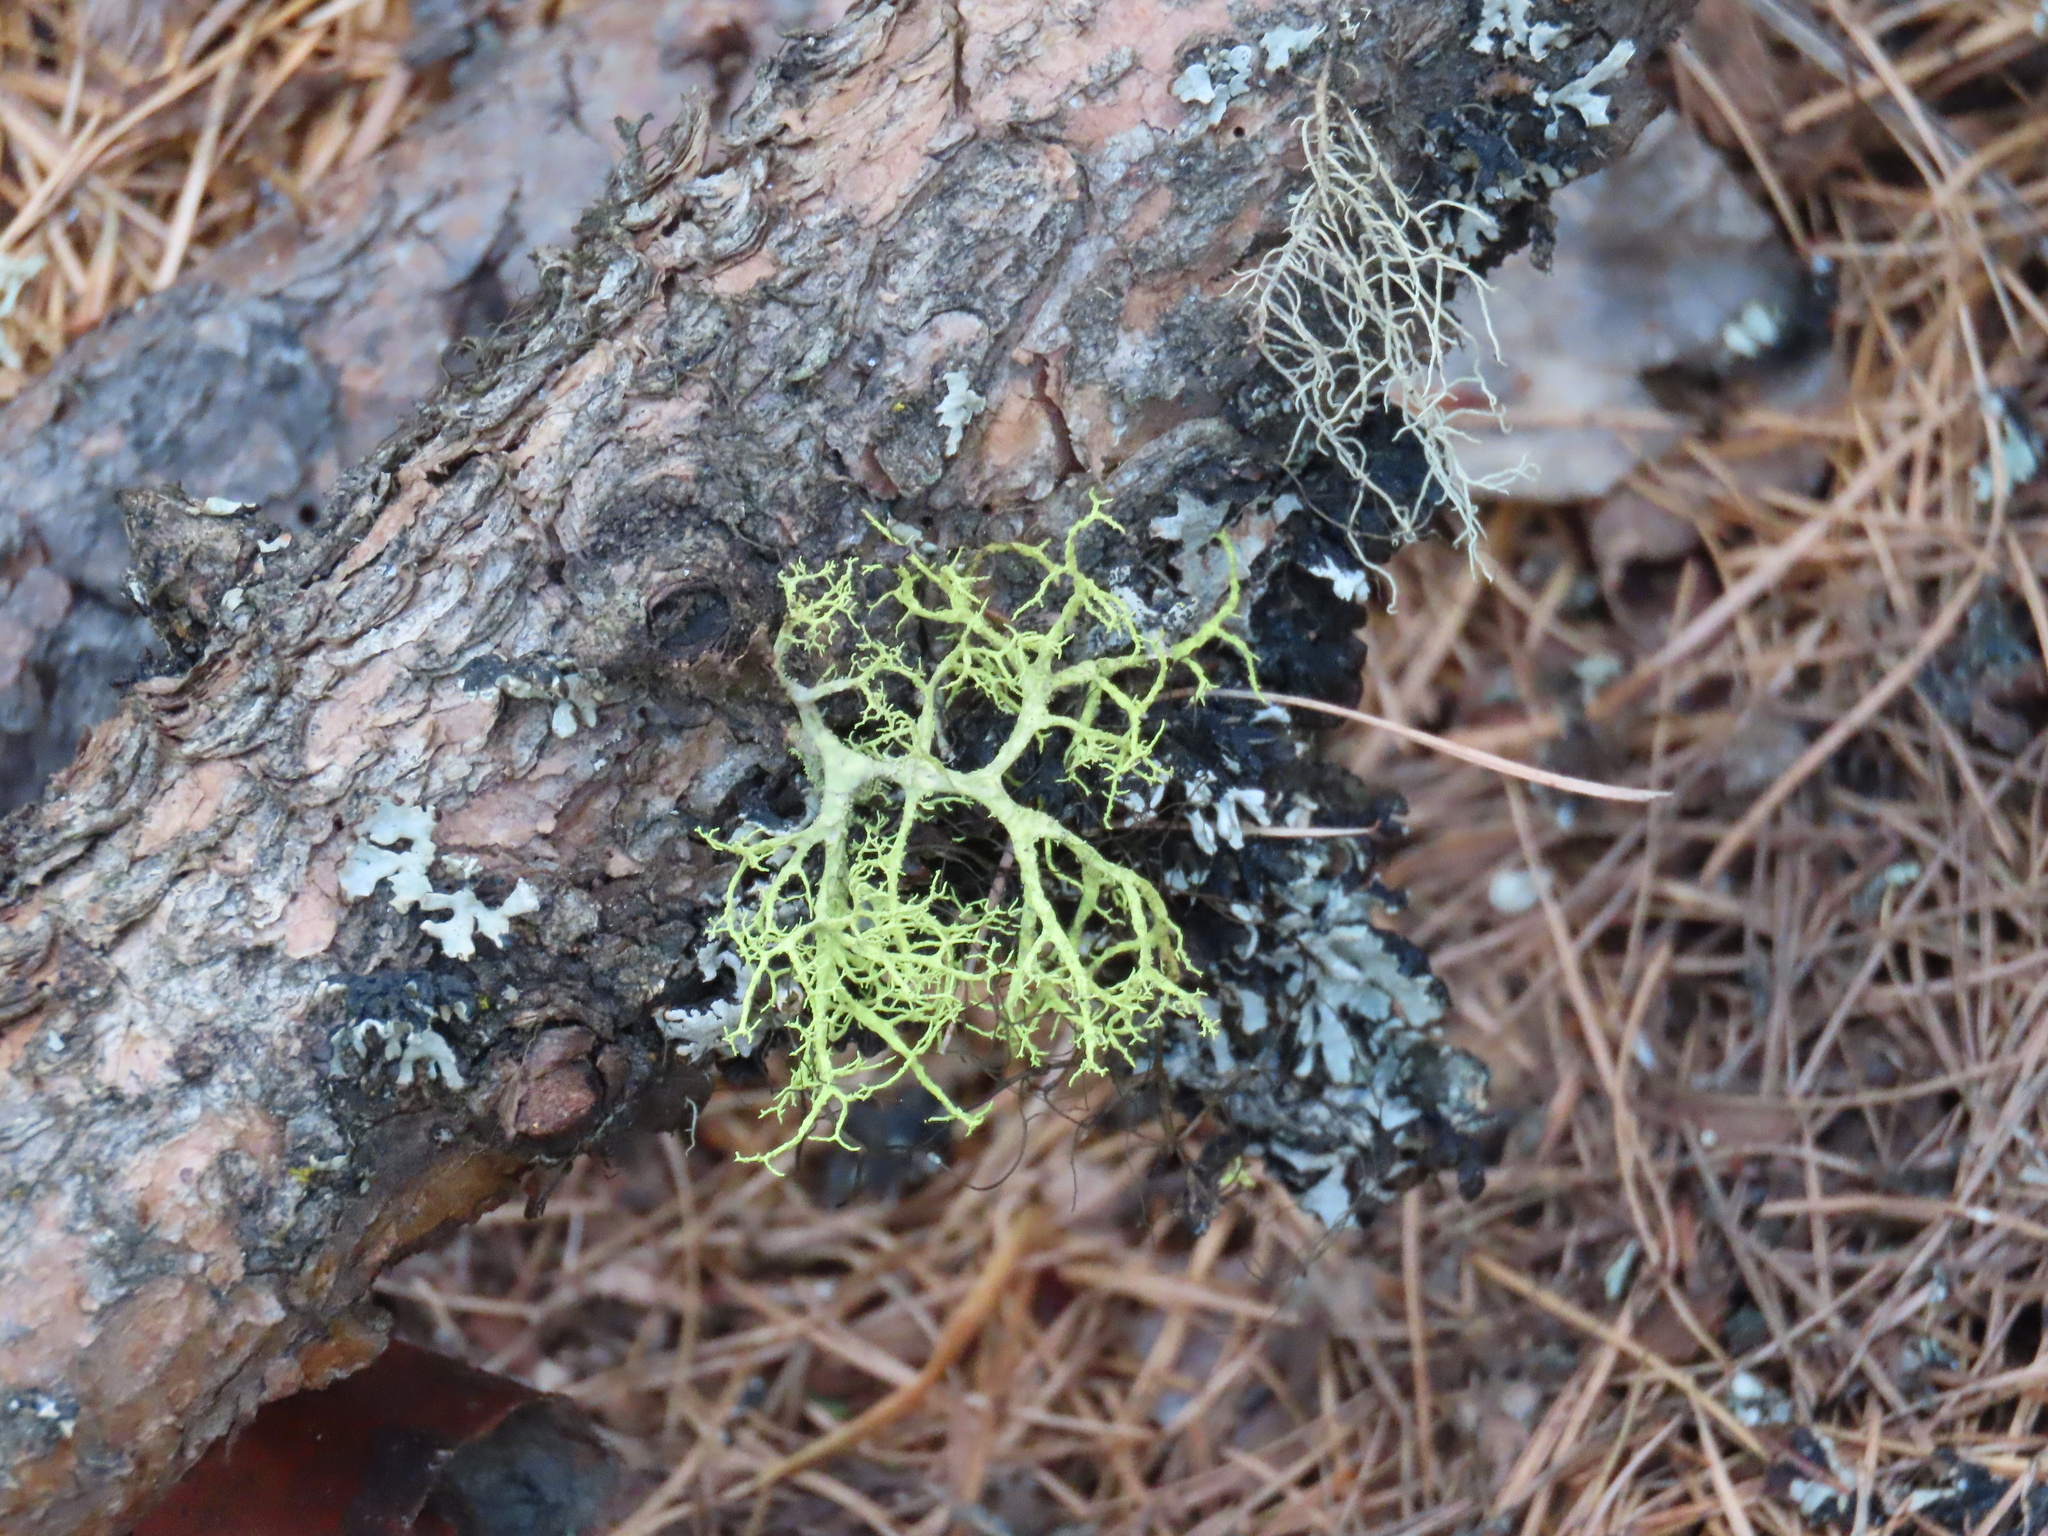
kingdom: Fungi
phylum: Ascomycota
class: Lecanoromycetes
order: Lecanorales
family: Parmeliaceae
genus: Letharia
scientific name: Letharia vulpina
